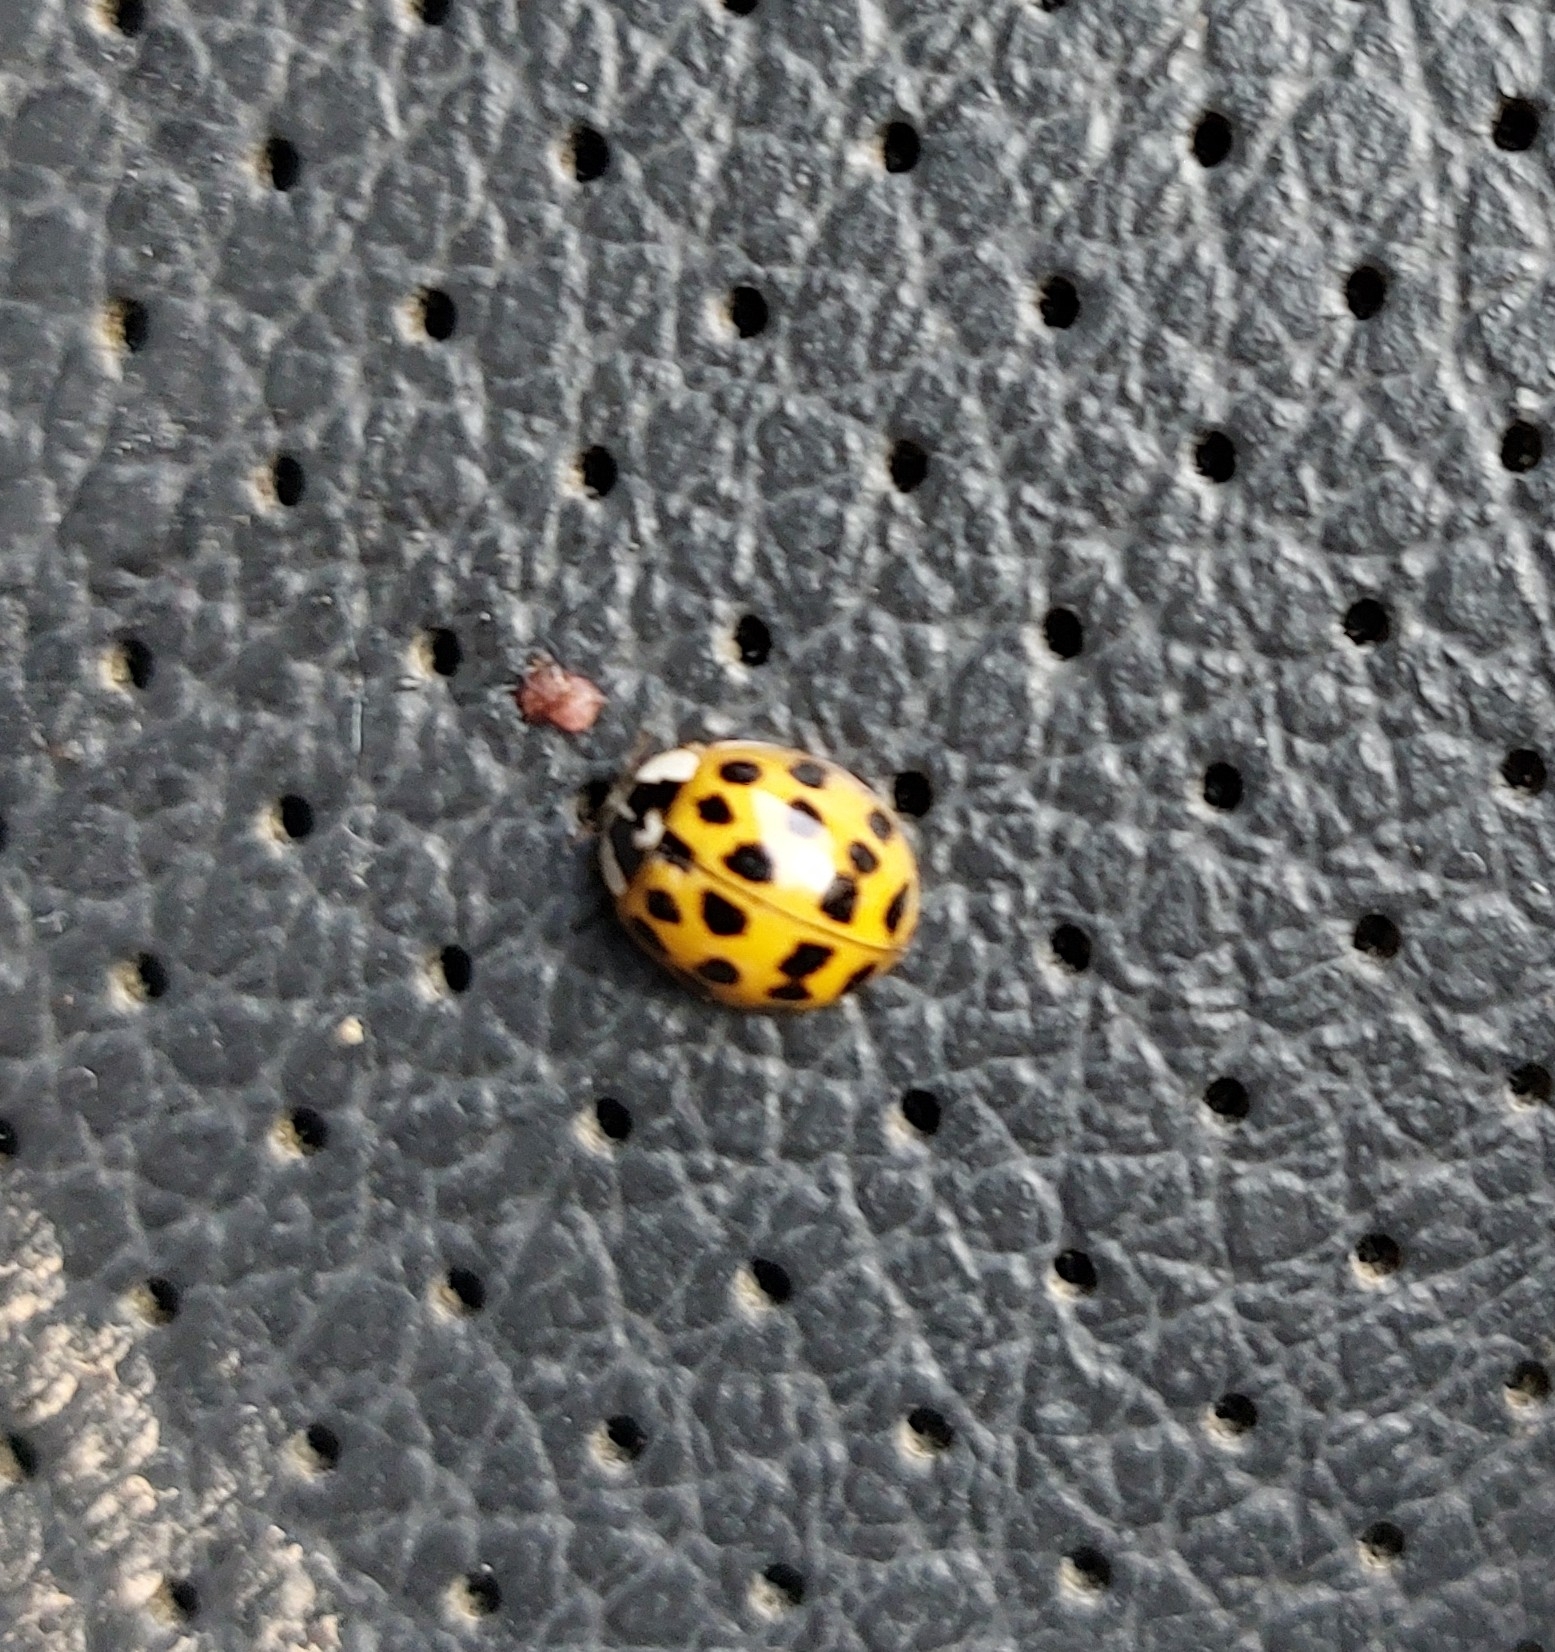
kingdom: Animalia
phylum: Arthropoda
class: Insecta
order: Coleoptera
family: Coccinellidae
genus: Harmonia
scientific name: Harmonia axyridis
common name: Harlequin ladybird
